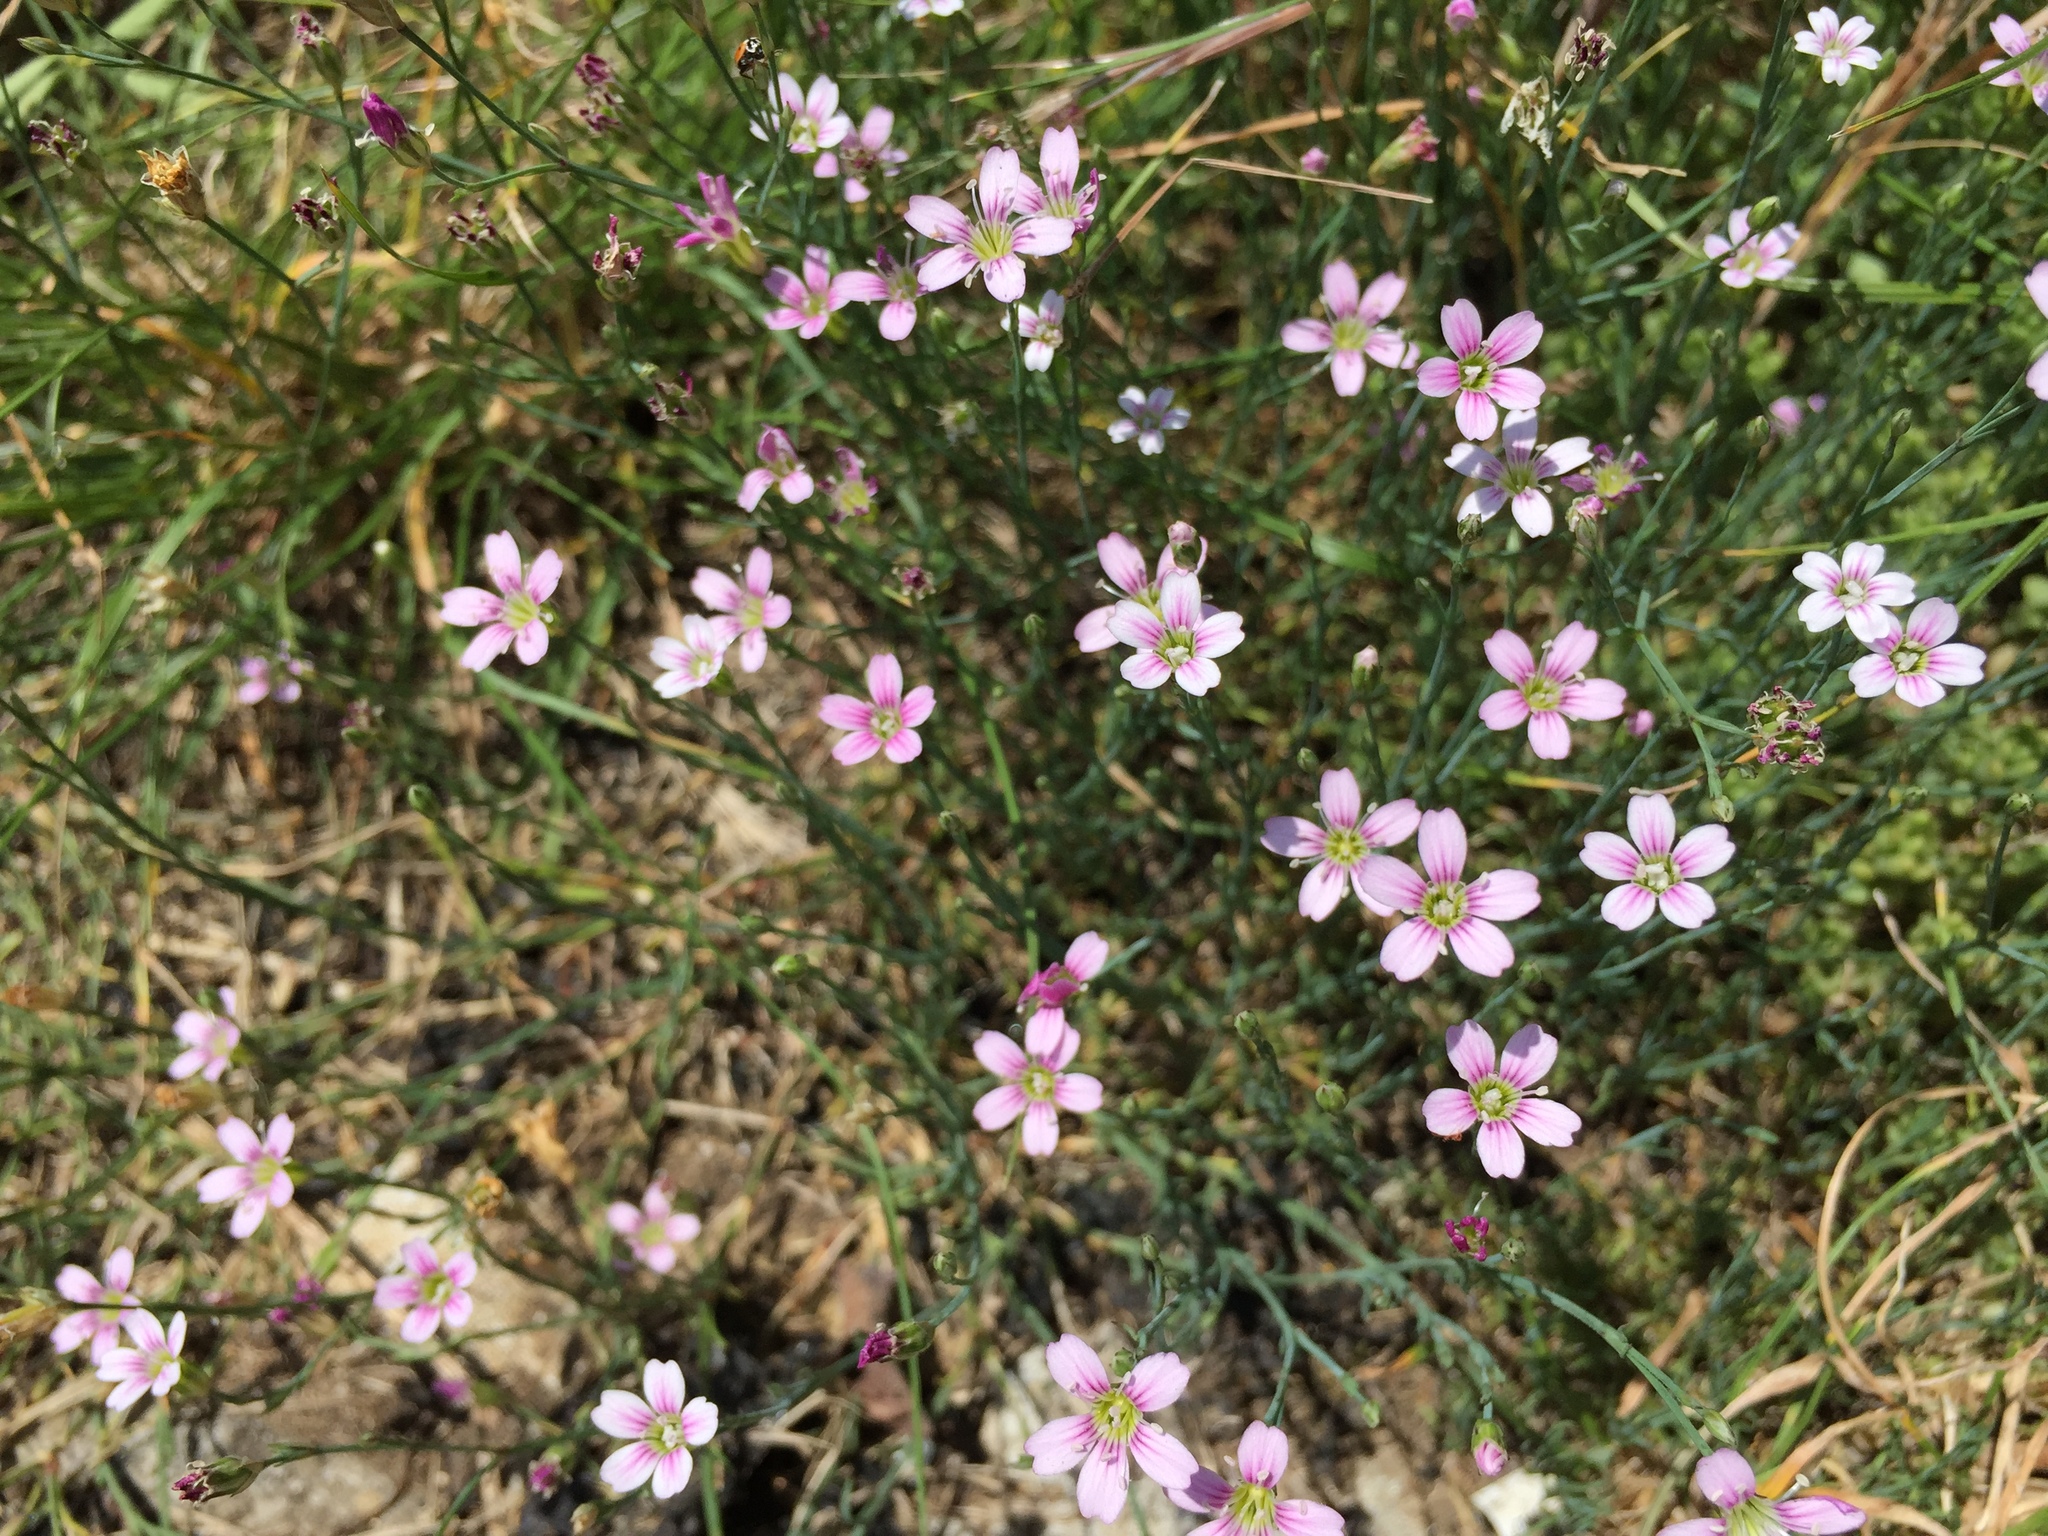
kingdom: Plantae
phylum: Tracheophyta
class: Magnoliopsida
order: Caryophyllales
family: Caryophyllaceae
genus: Petrorhagia
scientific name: Petrorhagia saxifraga
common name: Tunicflower
